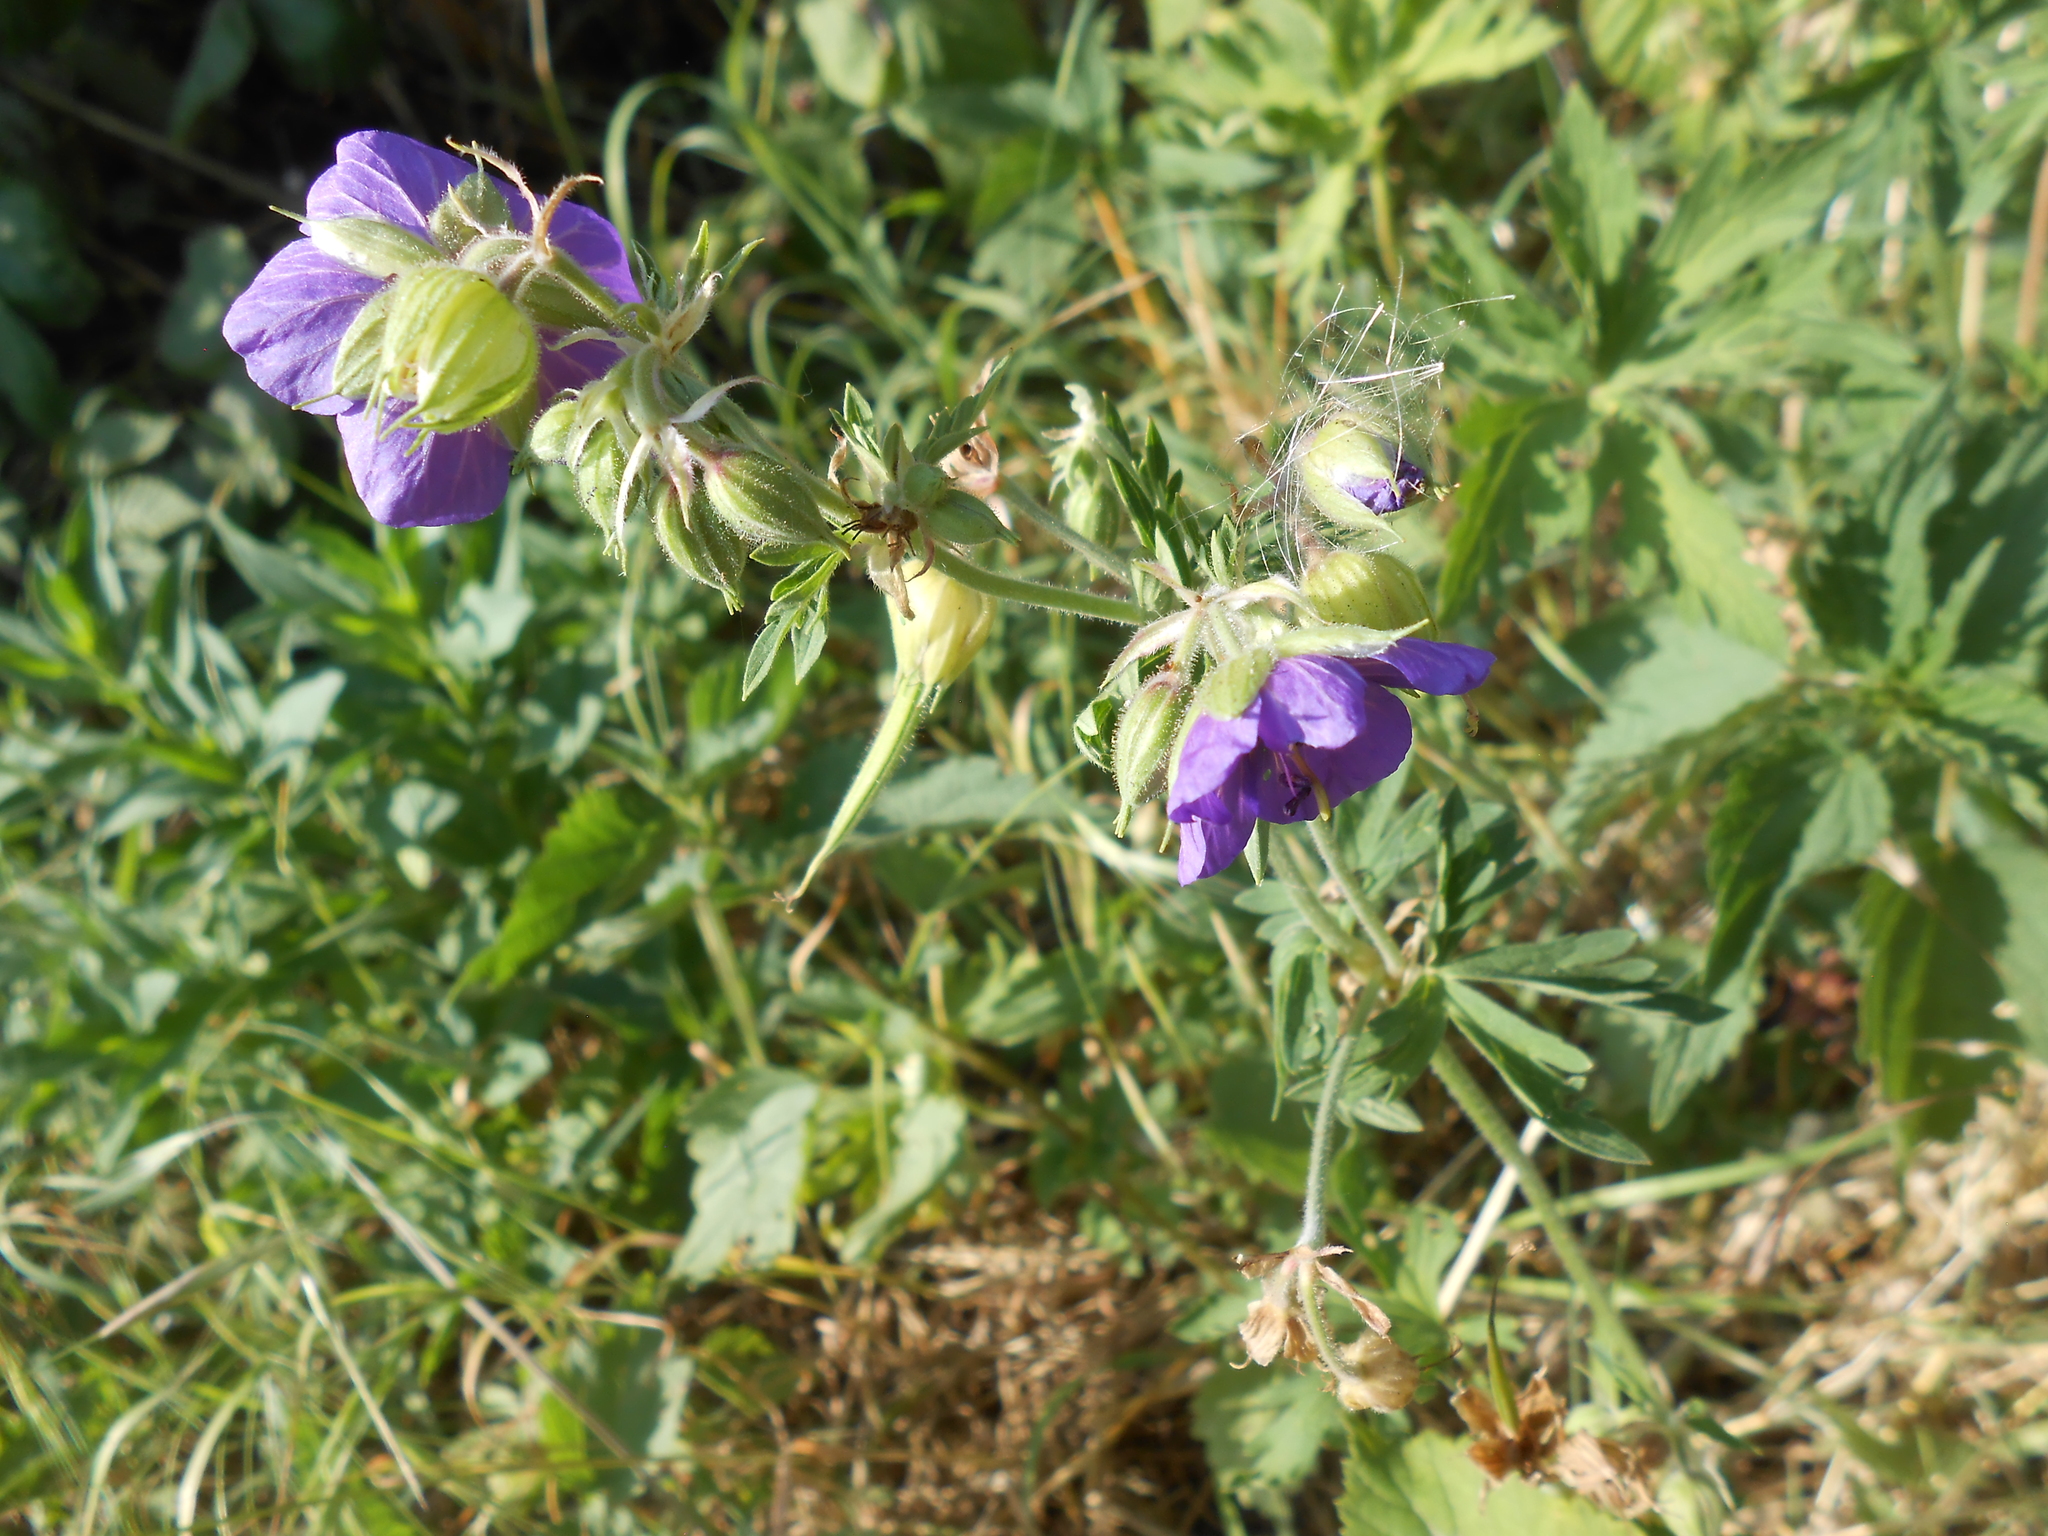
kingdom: Plantae
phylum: Tracheophyta
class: Magnoliopsida
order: Geraniales
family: Geraniaceae
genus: Geranium
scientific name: Geranium pratense
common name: Meadow crane's-bill
